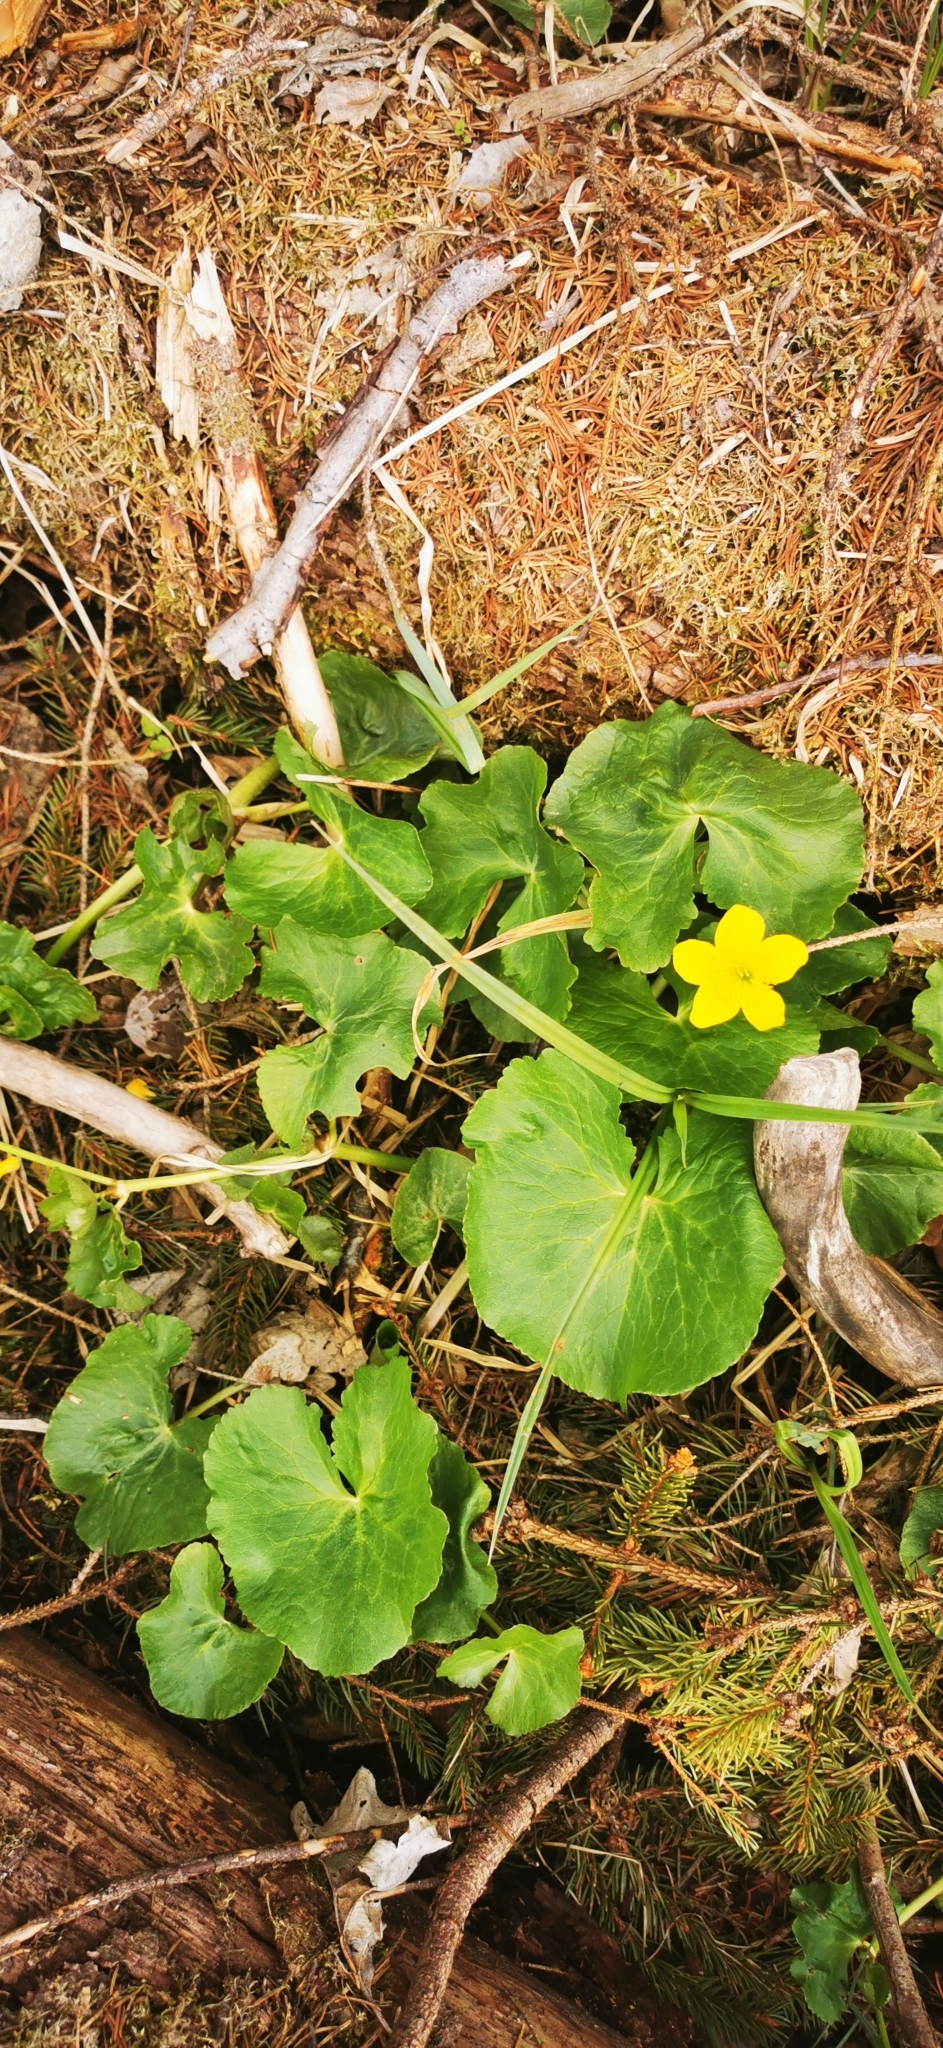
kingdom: Plantae
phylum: Tracheophyta
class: Magnoliopsida
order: Ranunculales
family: Ranunculaceae
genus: Caltha
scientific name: Caltha palustris
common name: Marsh marigold
